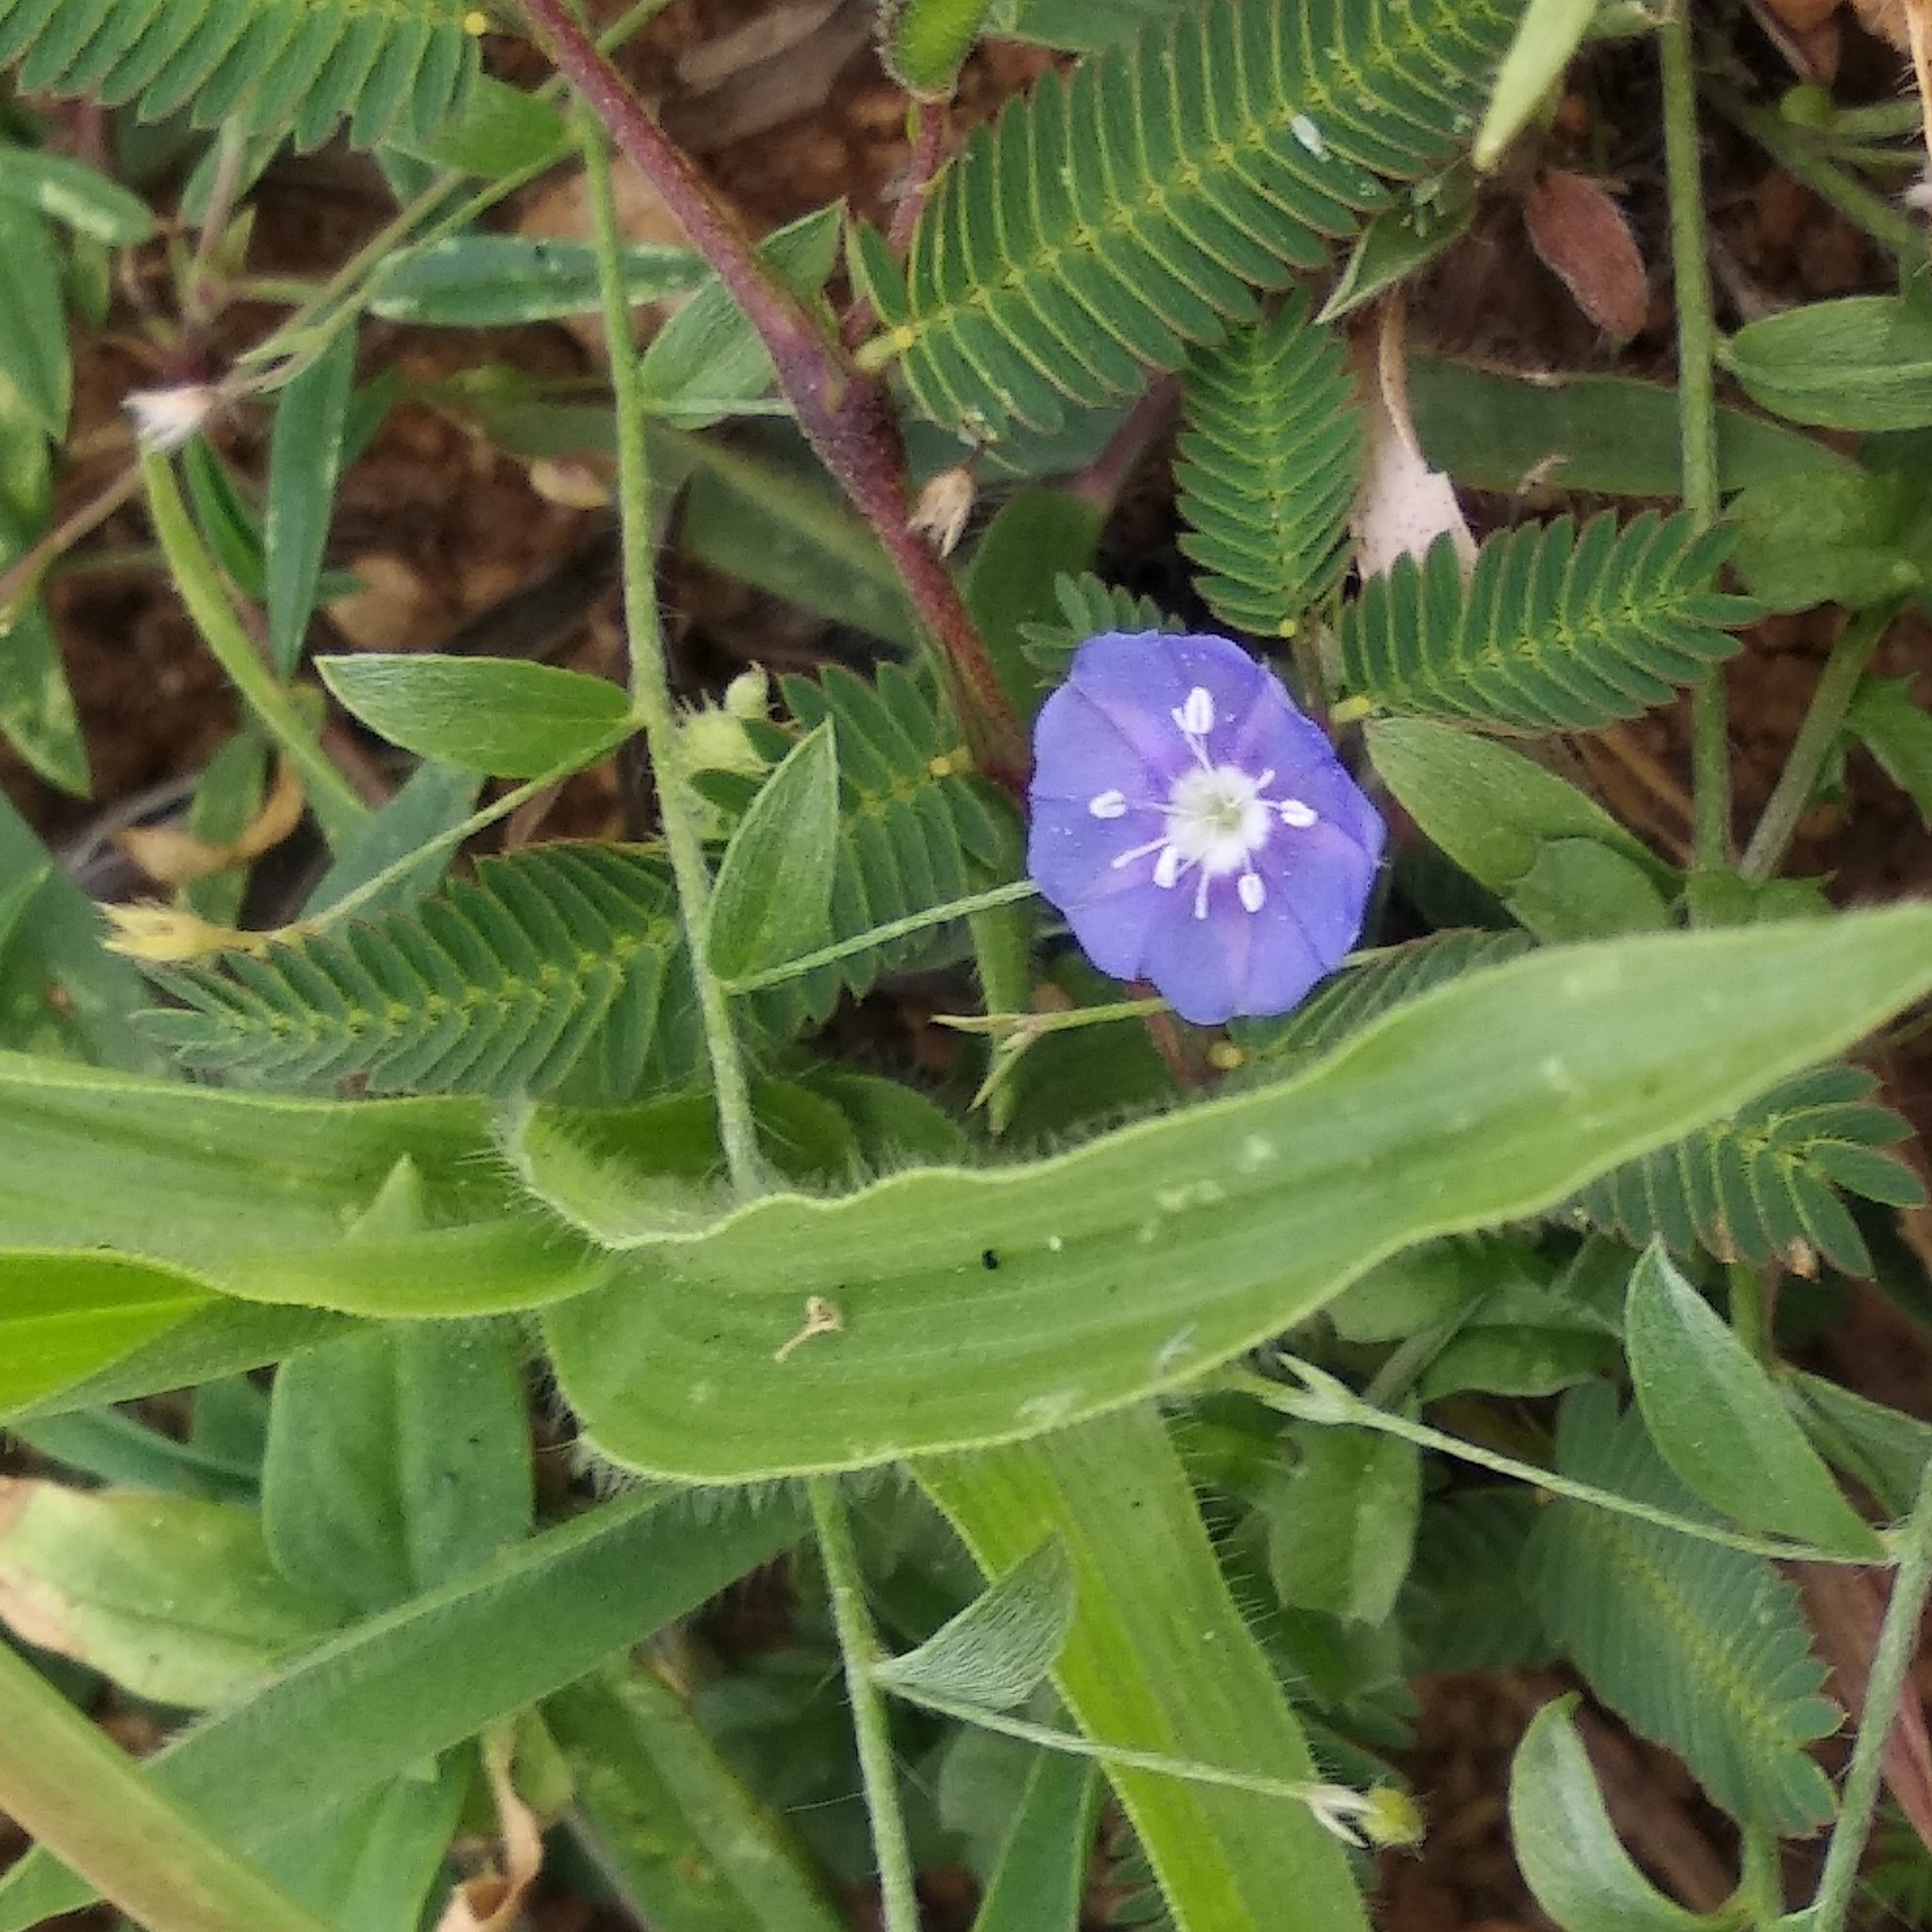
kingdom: Plantae
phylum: Tracheophyta
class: Magnoliopsida
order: Solanales
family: Convolvulaceae
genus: Evolvulus
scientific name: Evolvulus alsinoides
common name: Slender dwarf morning-glory
